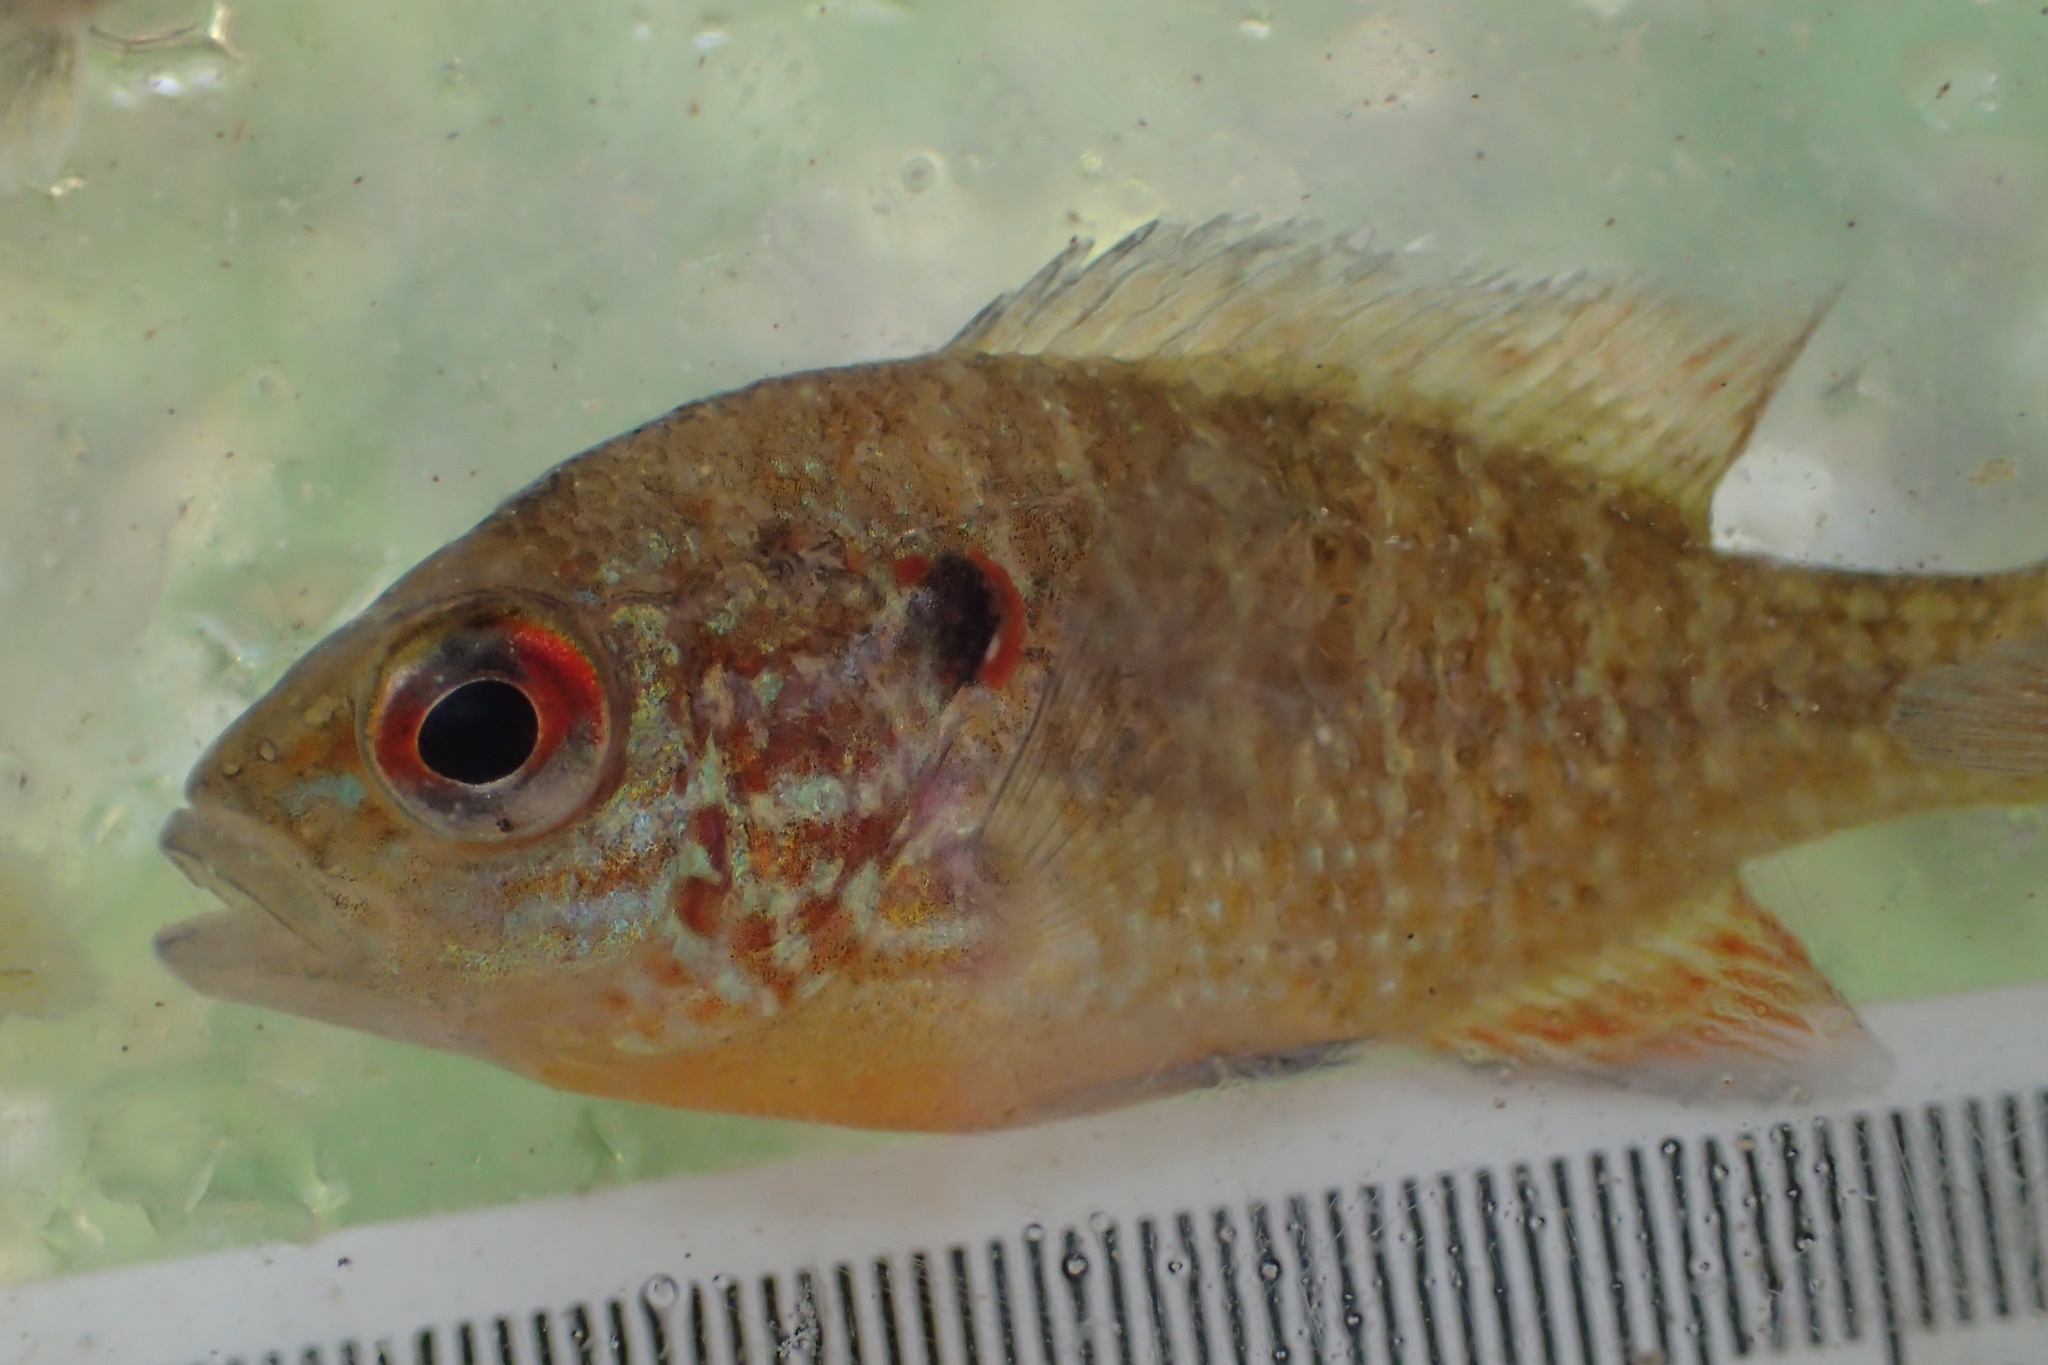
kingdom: Animalia
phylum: Chordata
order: Perciformes
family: Centrarchidae
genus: Lepomis
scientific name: Lepomis peltastes
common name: Northern sunfish
